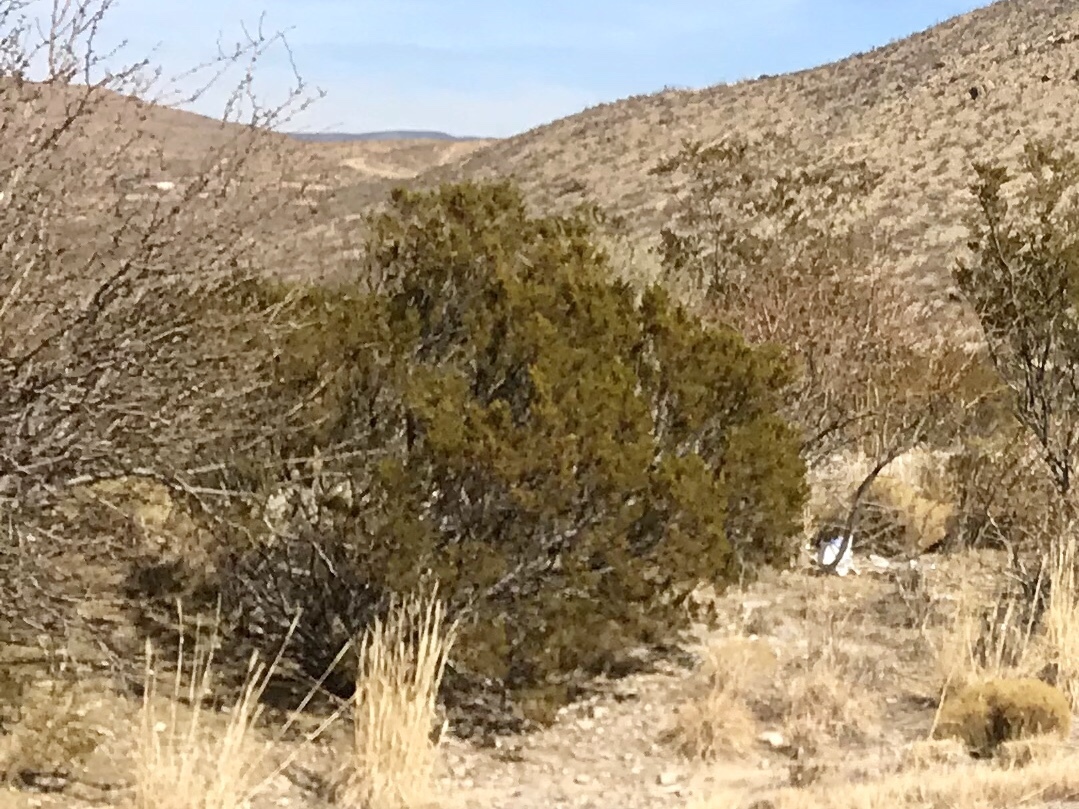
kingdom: Plantae
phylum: Tracheophyta
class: Magnoliopsida
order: Zygophyllales
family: Zygophyllaceae
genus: Larrea
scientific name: Larrea tridentata
